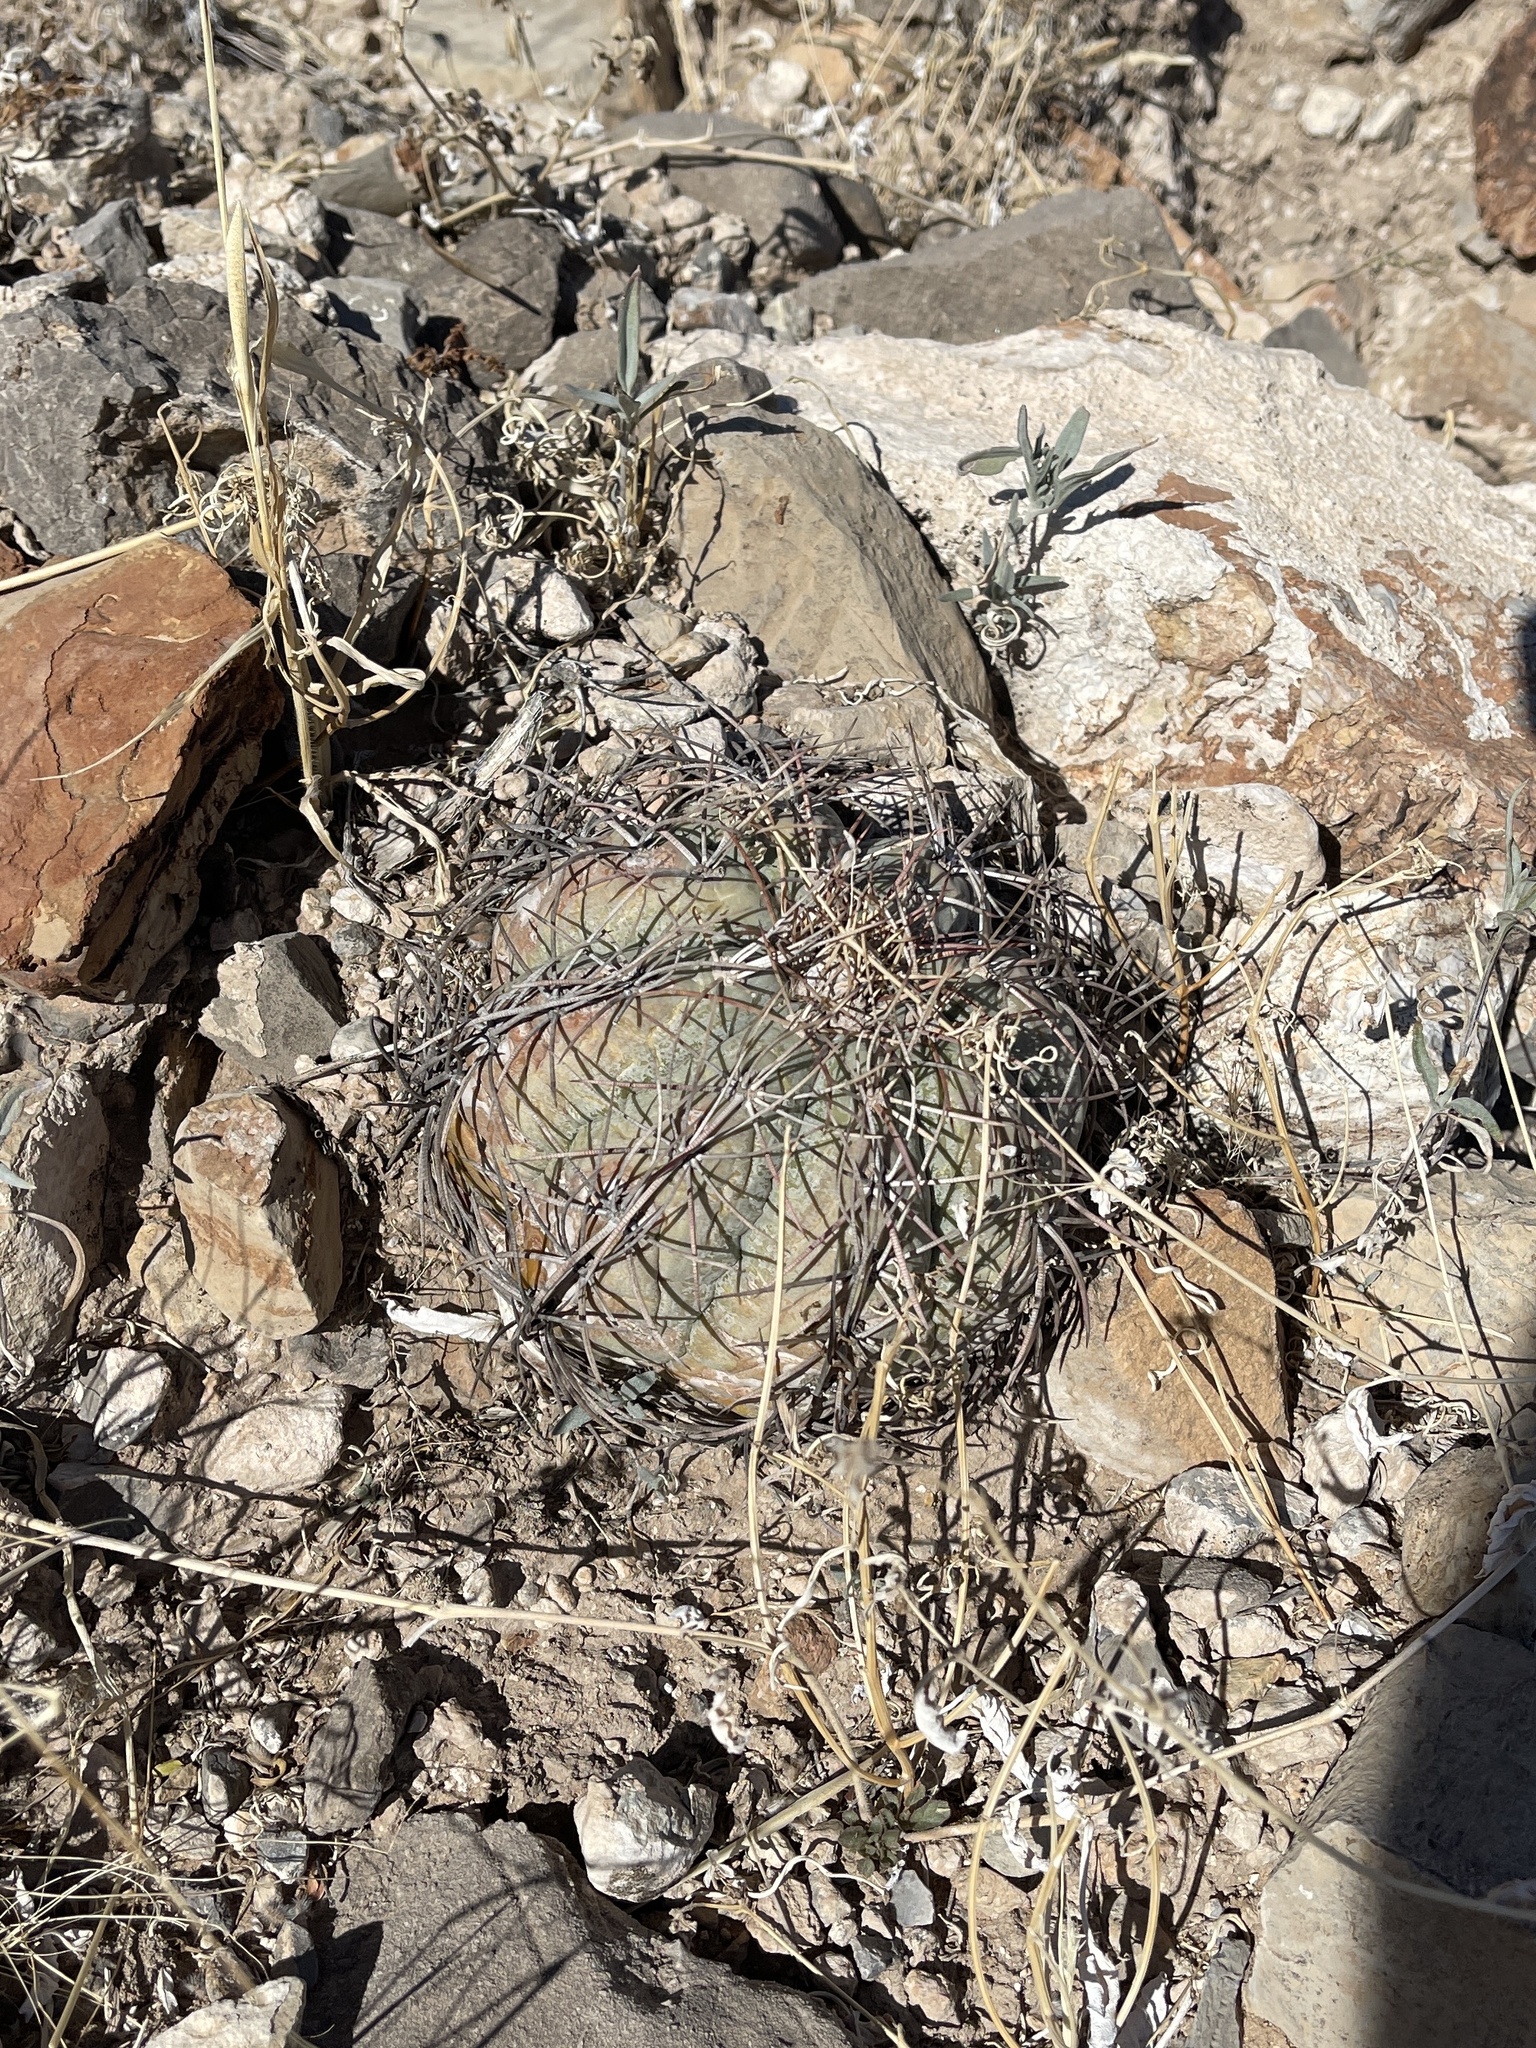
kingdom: Plantae
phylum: Tracheophyta
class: Magnoliopsida
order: Caryophyllales
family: Cactaceae
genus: Echinocactus
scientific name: Echinocactus horizonthalonius
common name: Devilshead
